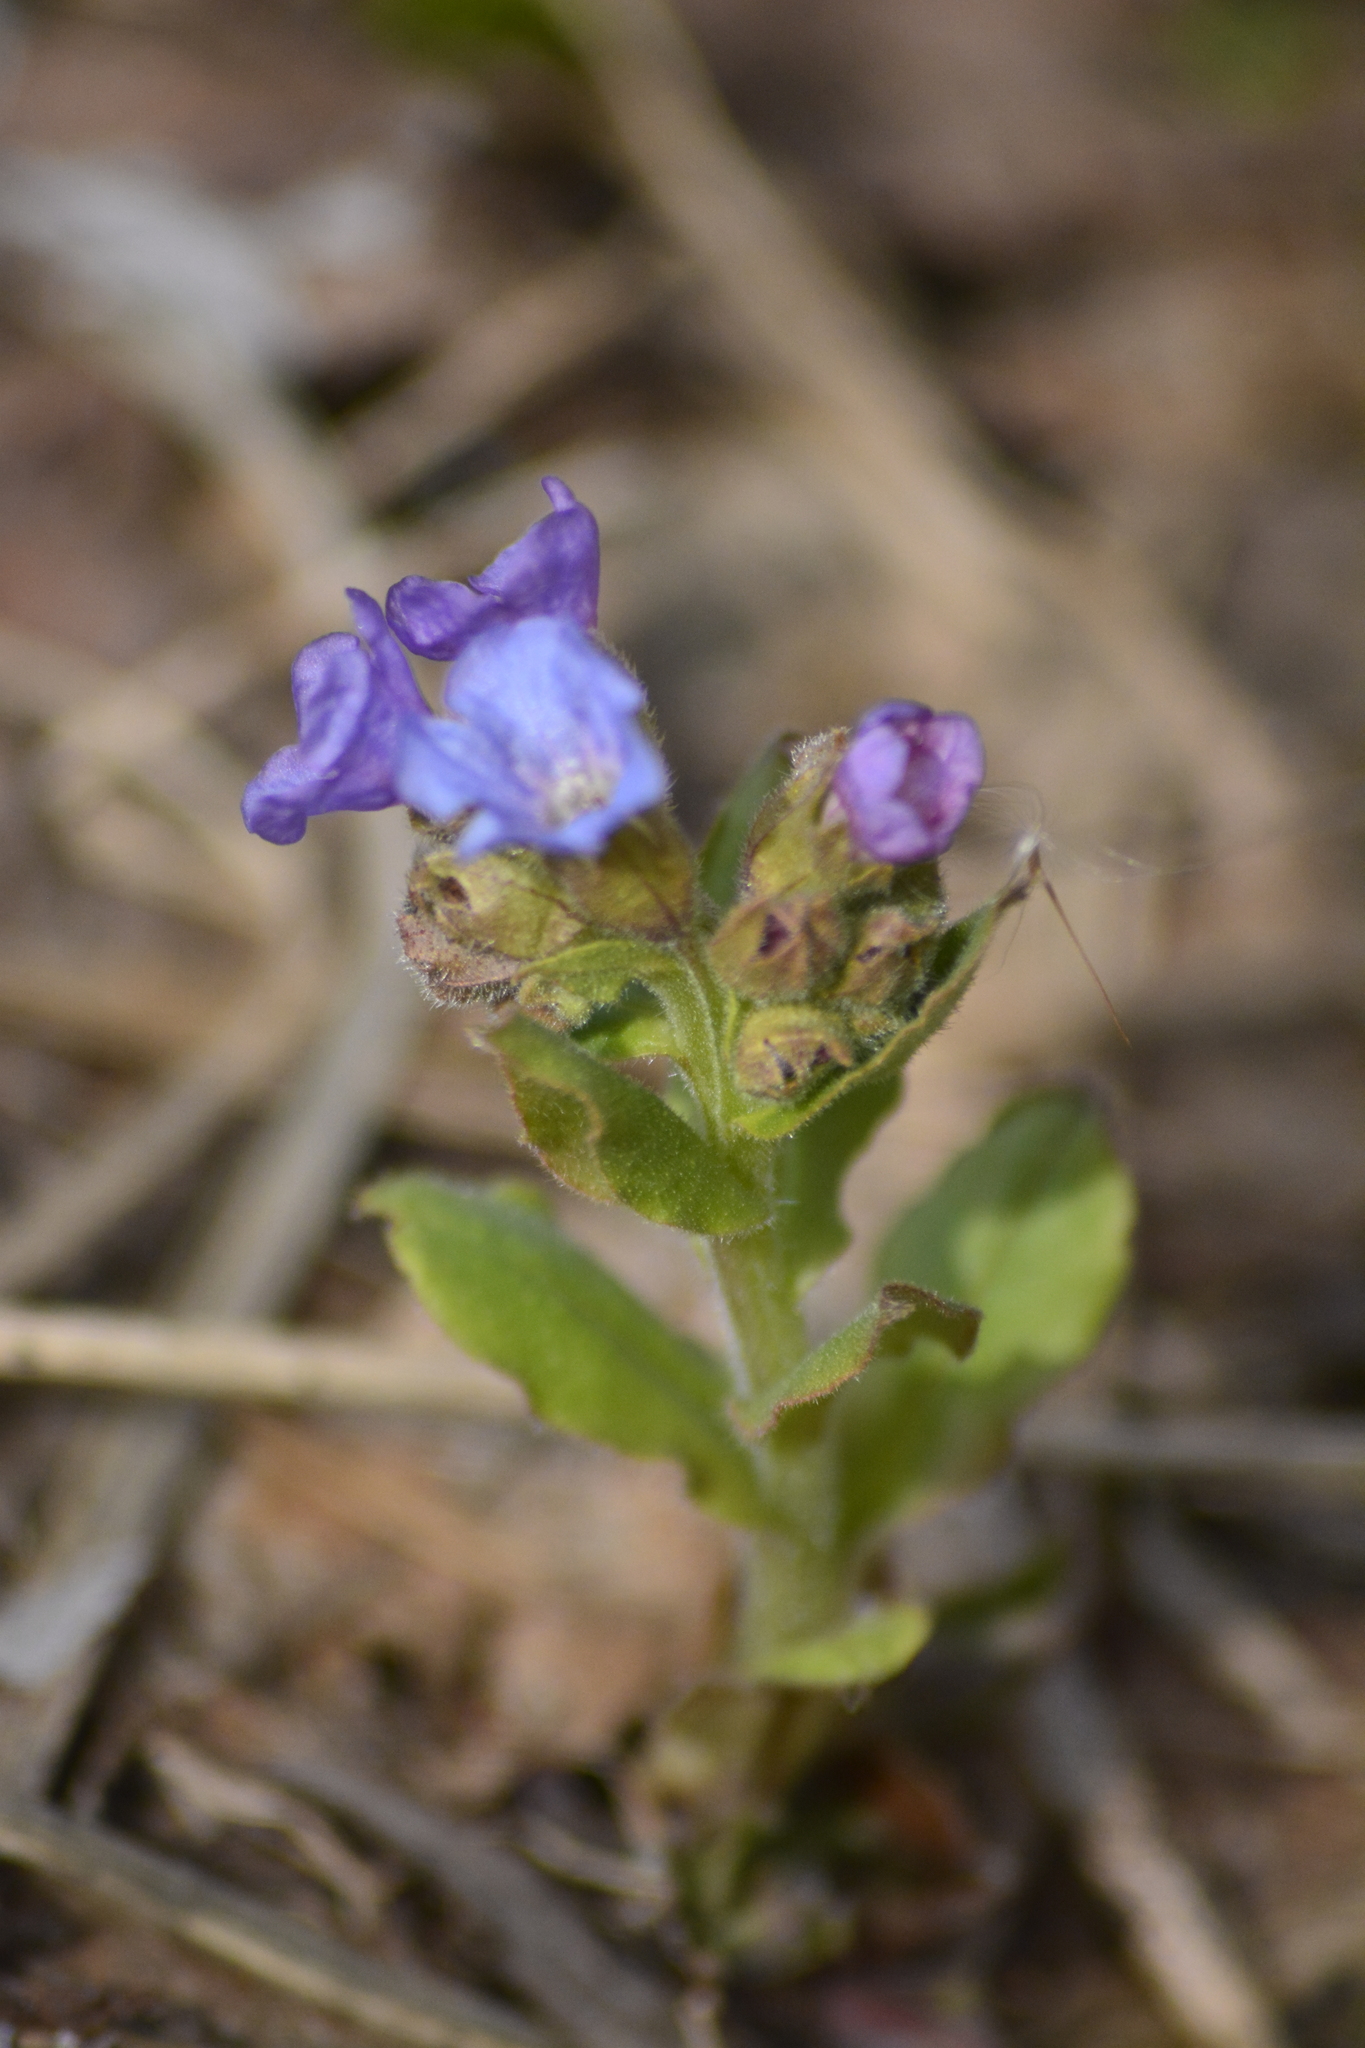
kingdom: Plantae
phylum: Tracheophyta
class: Magnoliopsida
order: Boraginales
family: Boraginaceae
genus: Pulmonaria
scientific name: Pulmonaria obscura
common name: Suffolk lungwort
